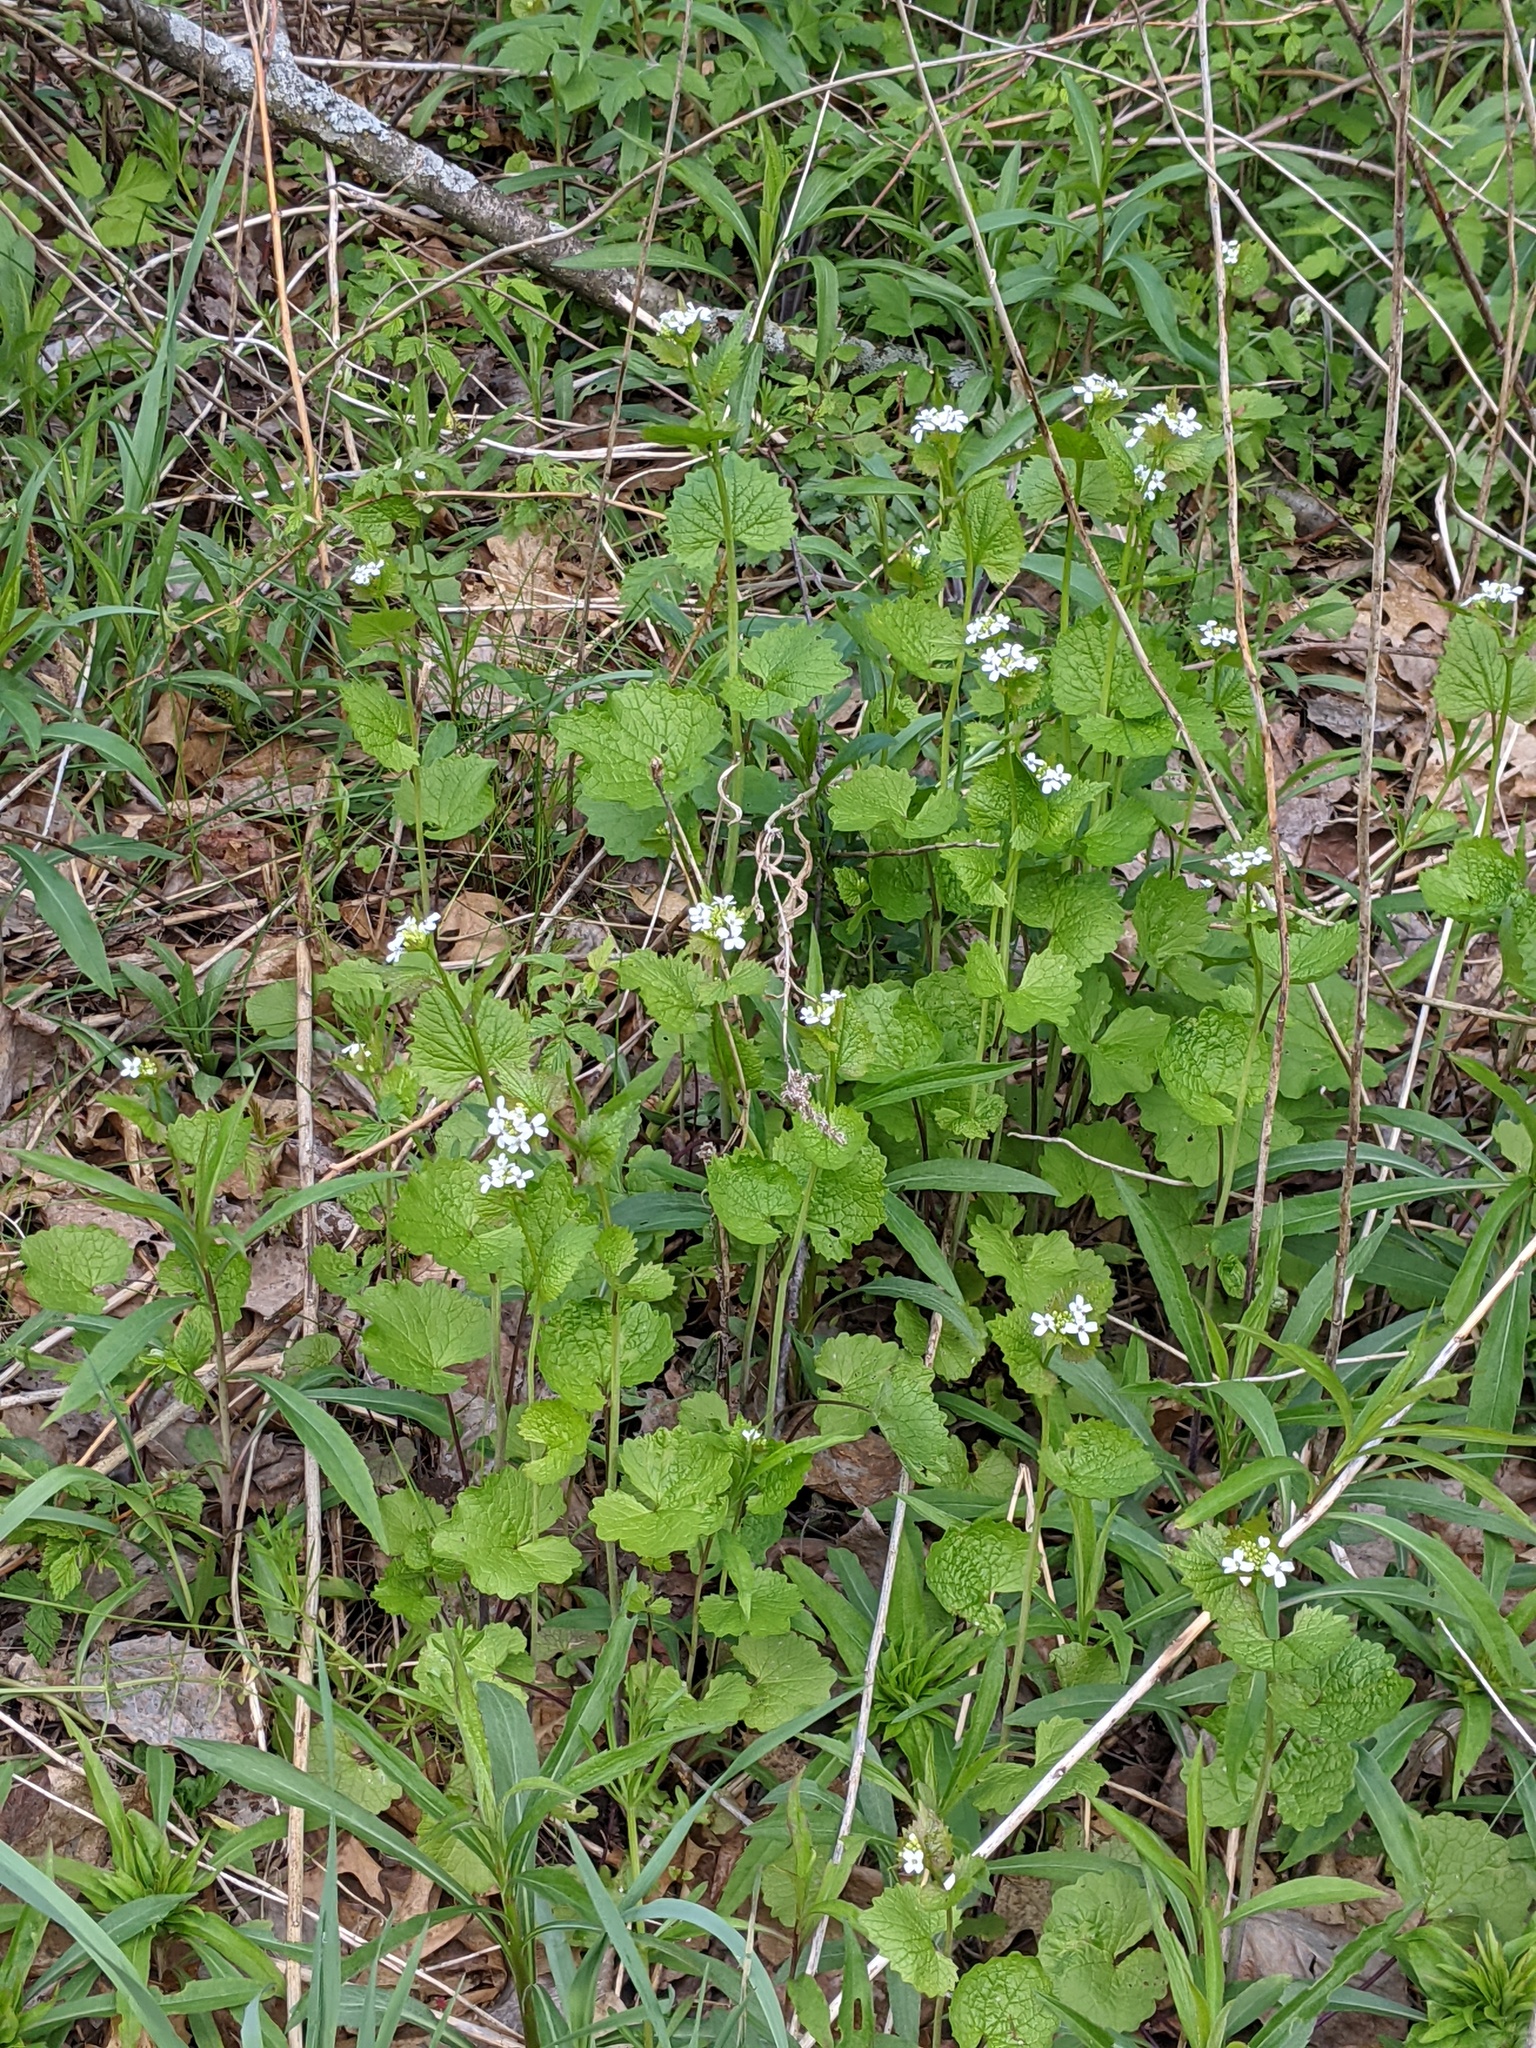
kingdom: Plantae
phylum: Tracheophyta
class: Magnoliopsida
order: Brassicales
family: Brassicaceae
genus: Alliaria
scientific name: Alliaria petiolata
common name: Garlic mustard
